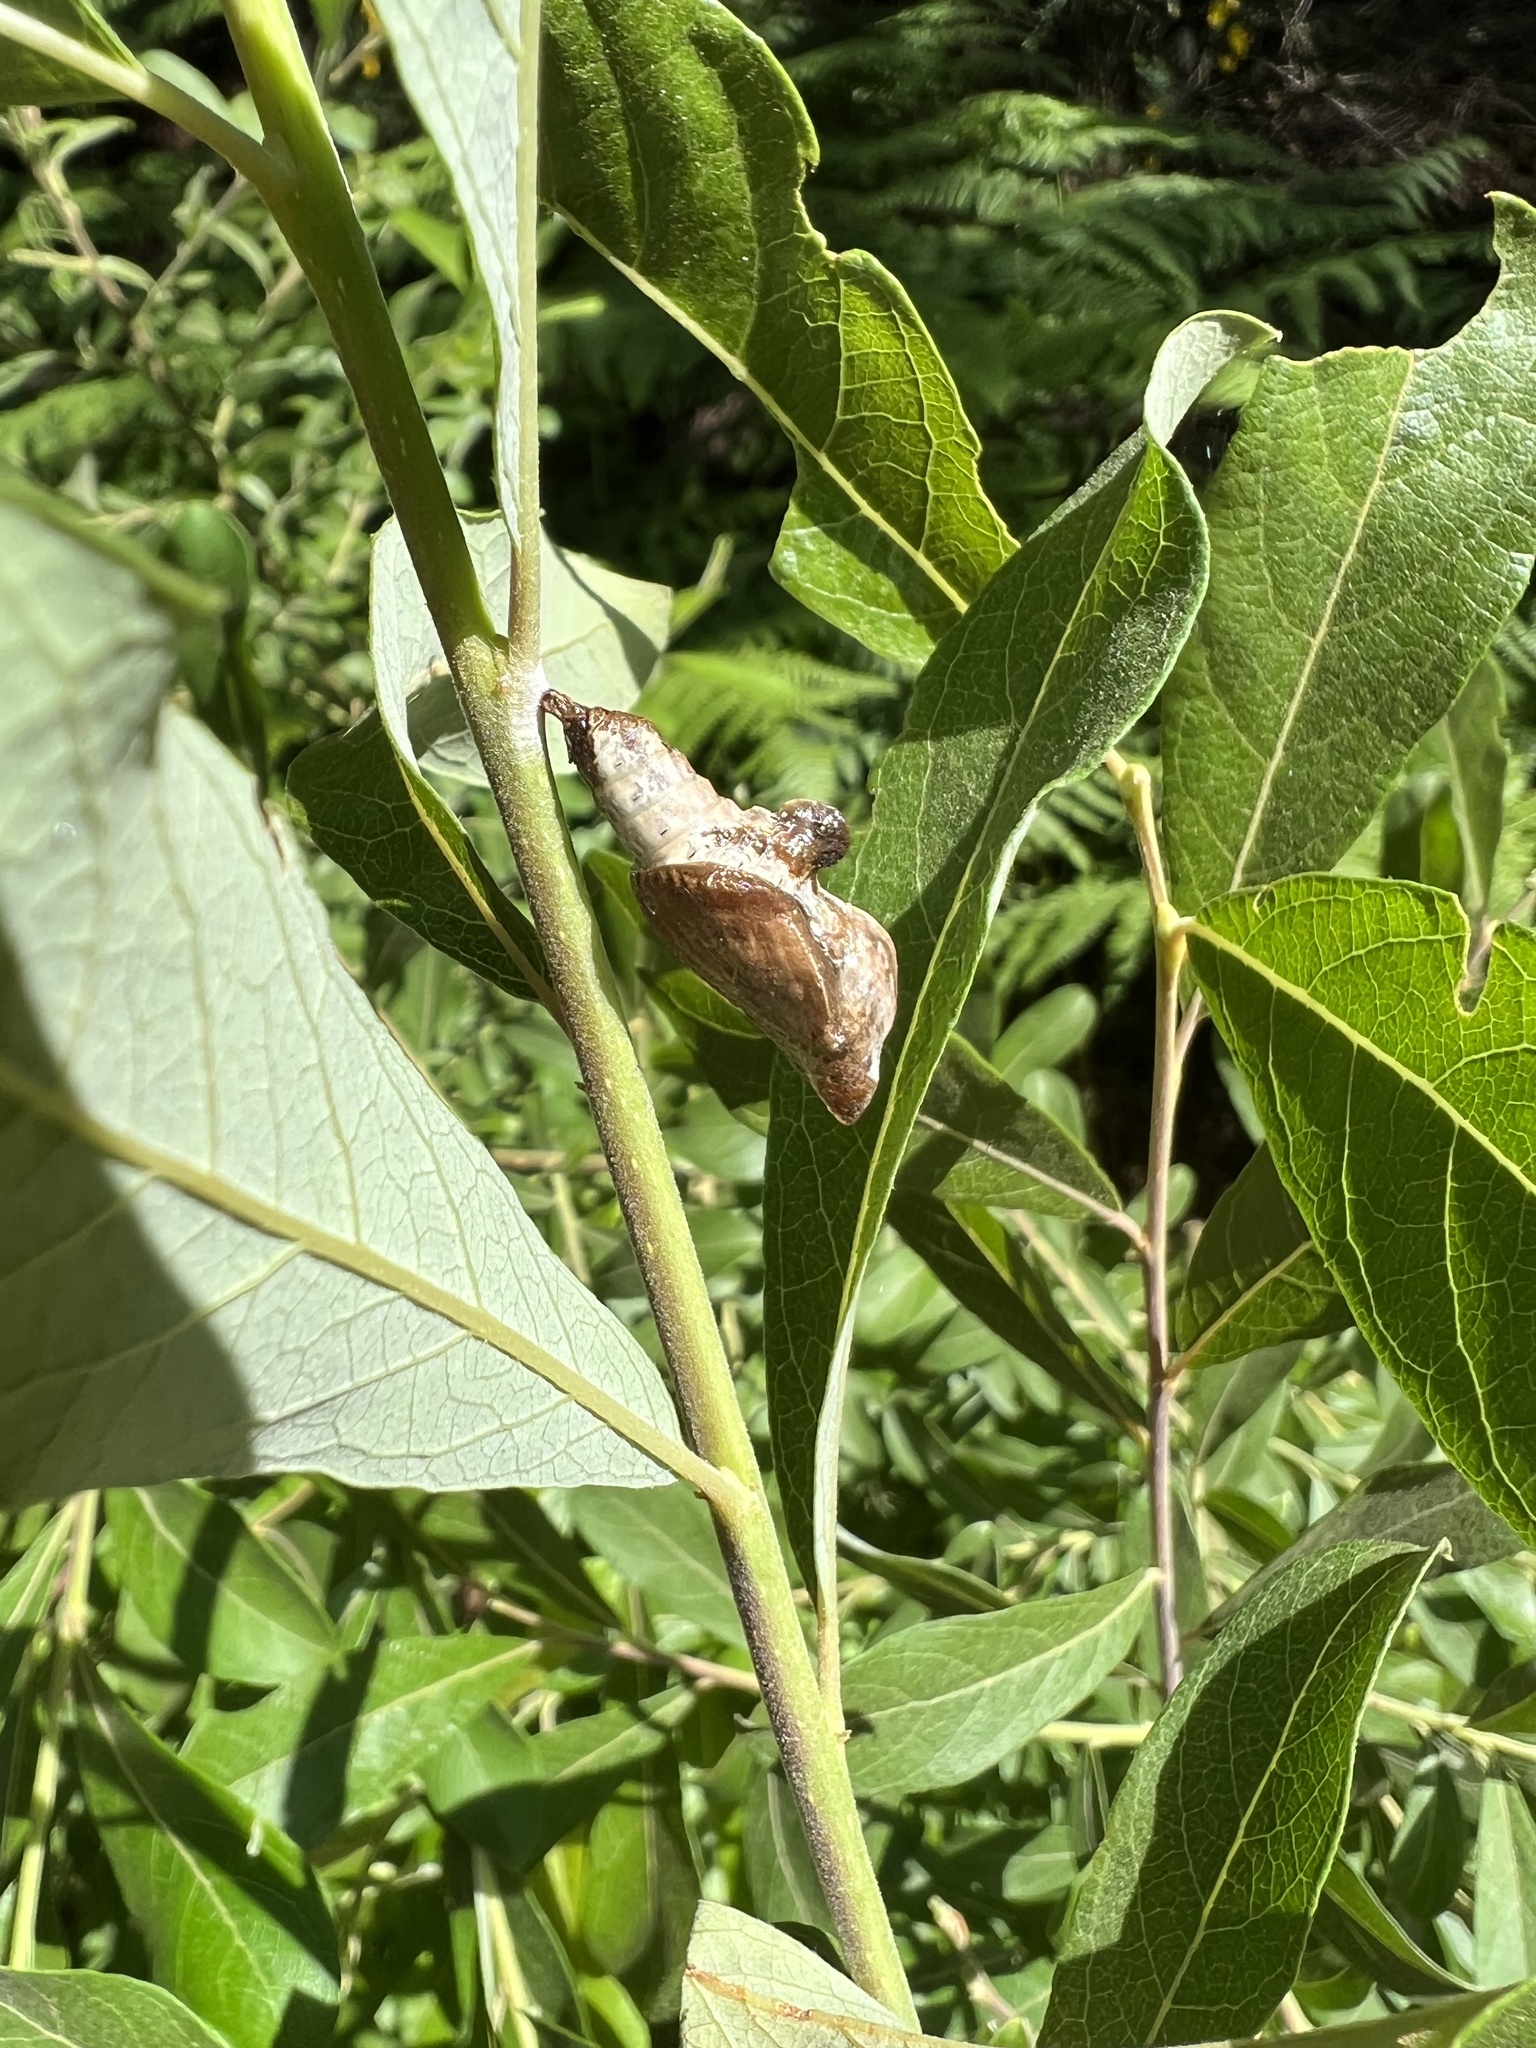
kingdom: Animalia
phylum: Arthropoda
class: Insecta
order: Lepidoptera
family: Nymphalidae
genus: Limenitis
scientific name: Limenitis lorquini
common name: Lorquin's admiral
